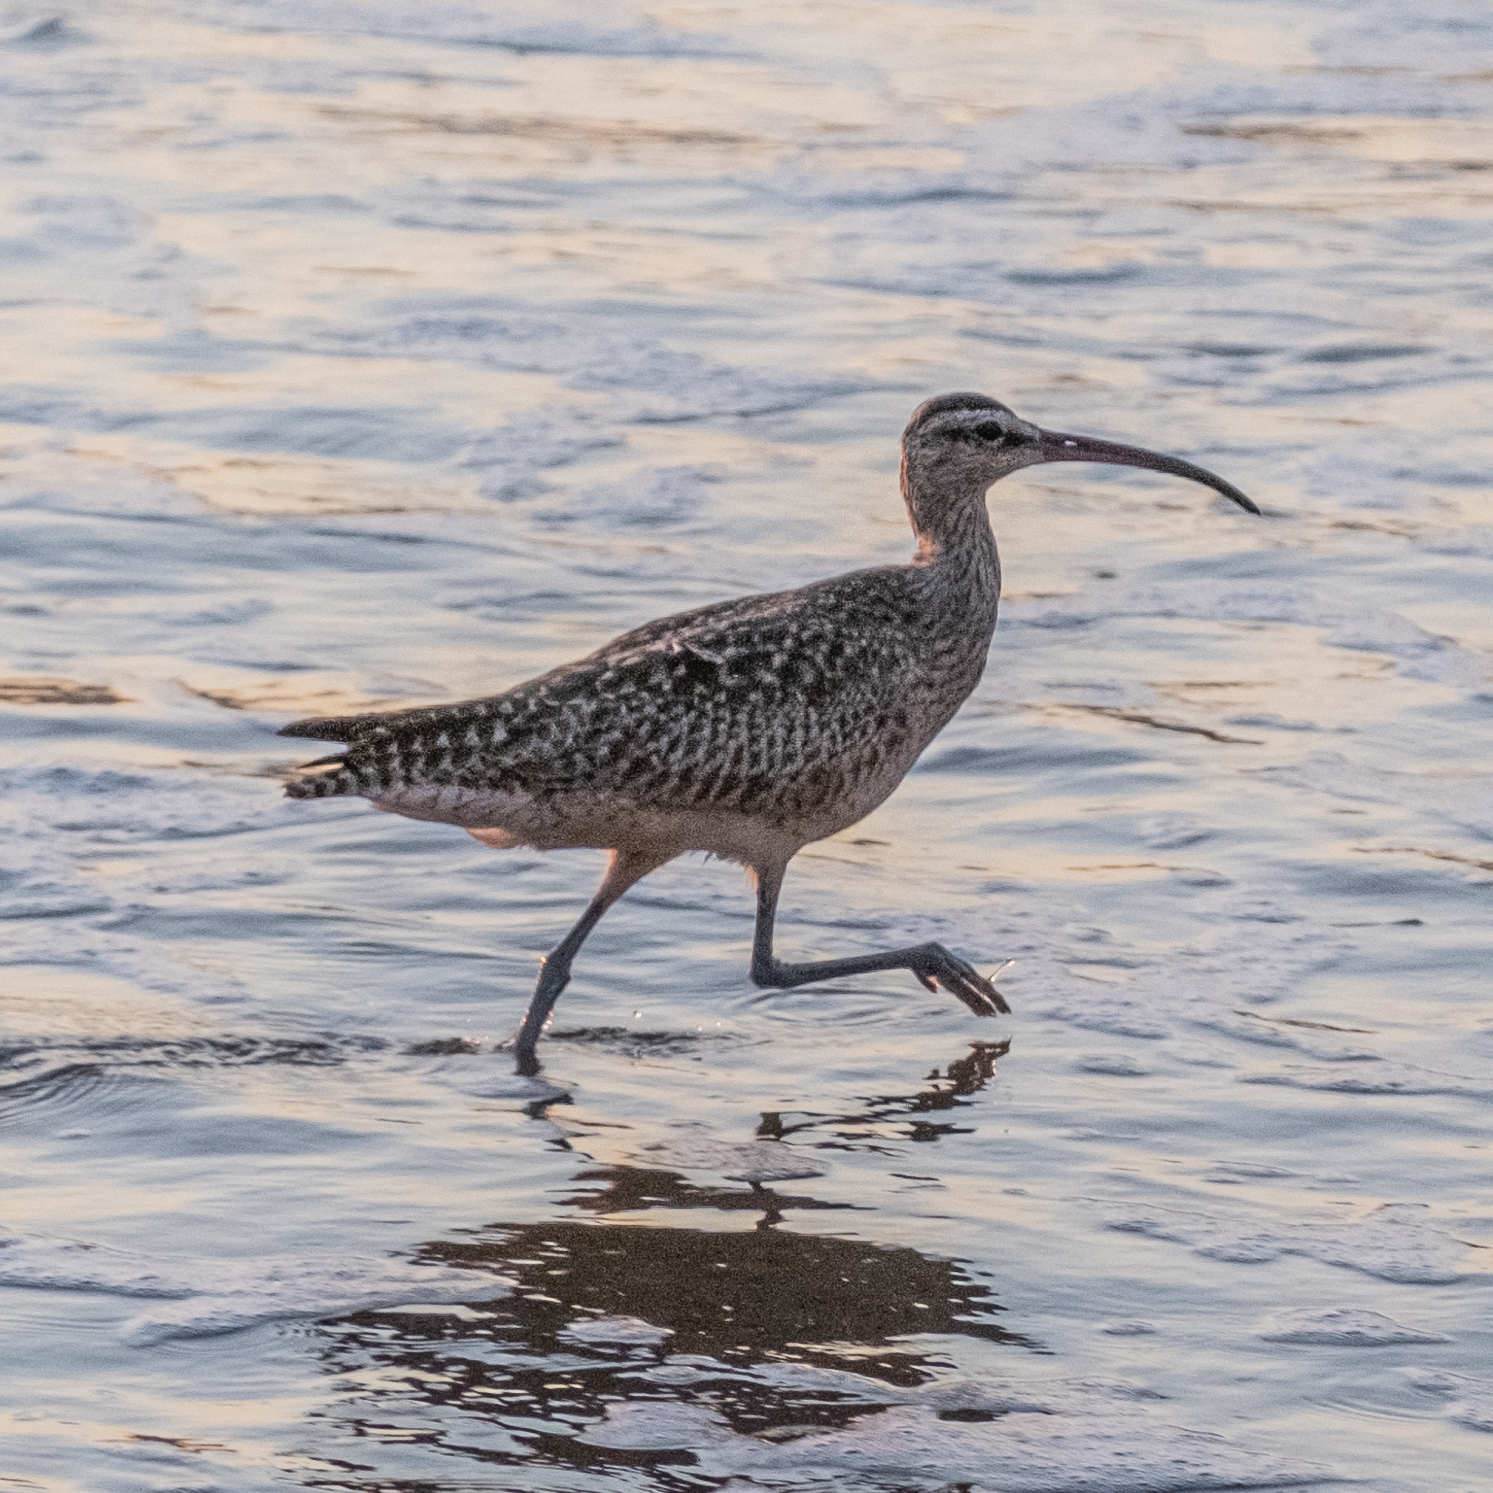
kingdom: Animalia
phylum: Chordata
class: Aves
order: Charadriiformes
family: Scolopacidae
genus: Numenius
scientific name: Numenius phaeopus
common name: Whimbrel
